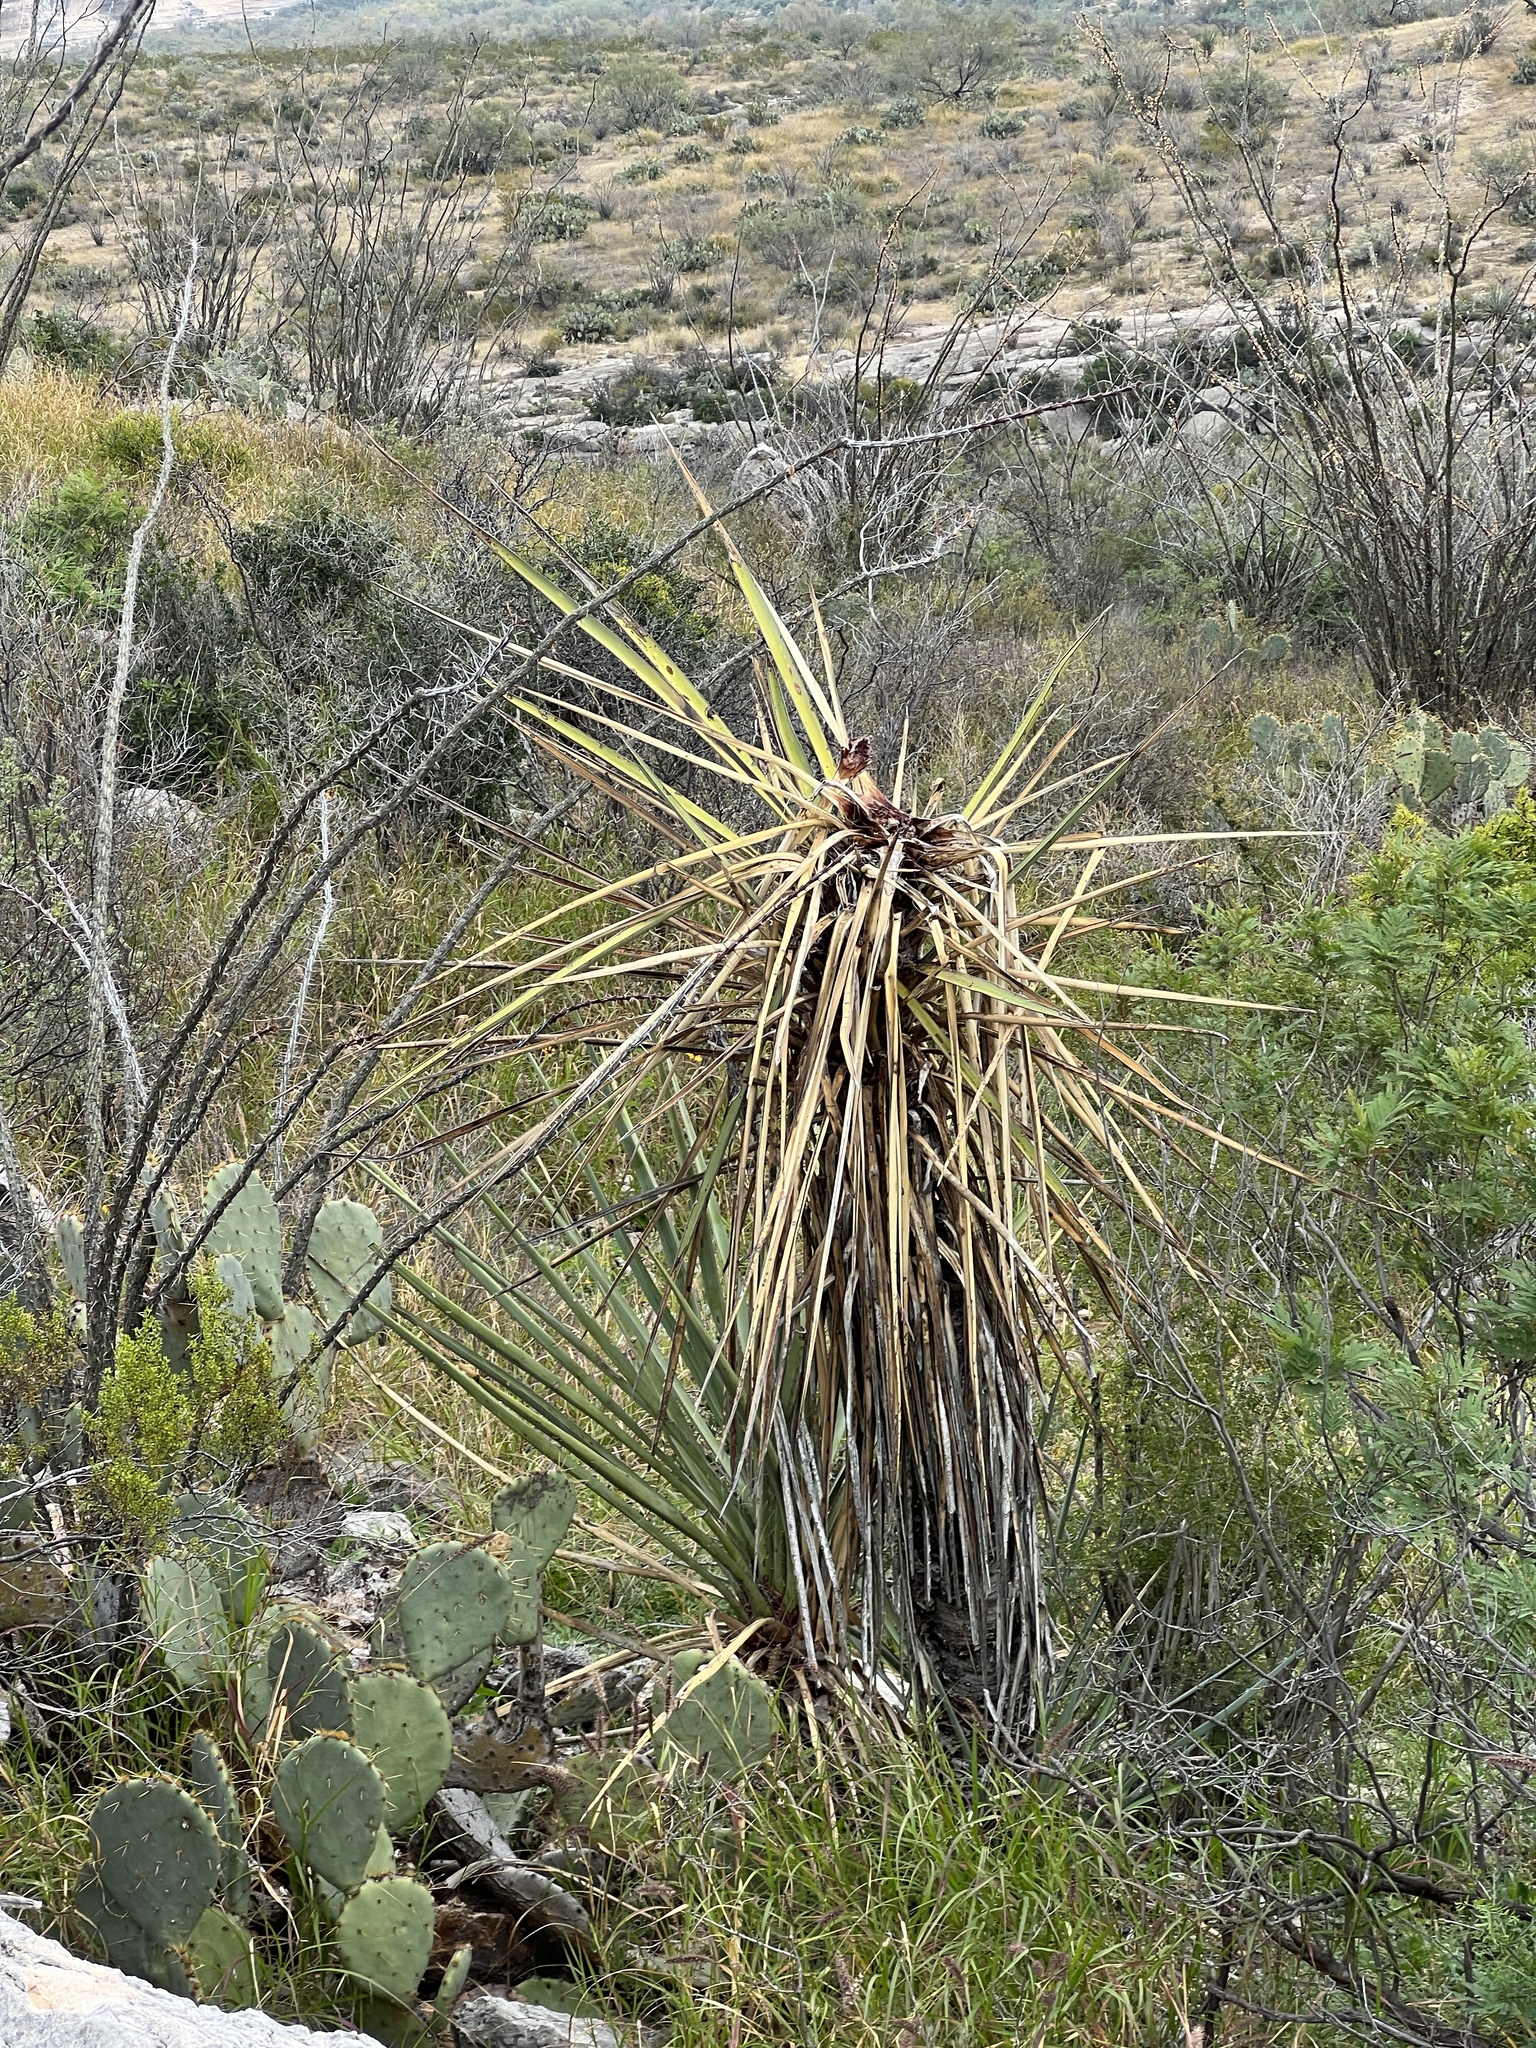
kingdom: Plantae
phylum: Tracheophyta
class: Liliopsida
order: Asparagales
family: Asparagaceae
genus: Yucca
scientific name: Yucca treculiana
